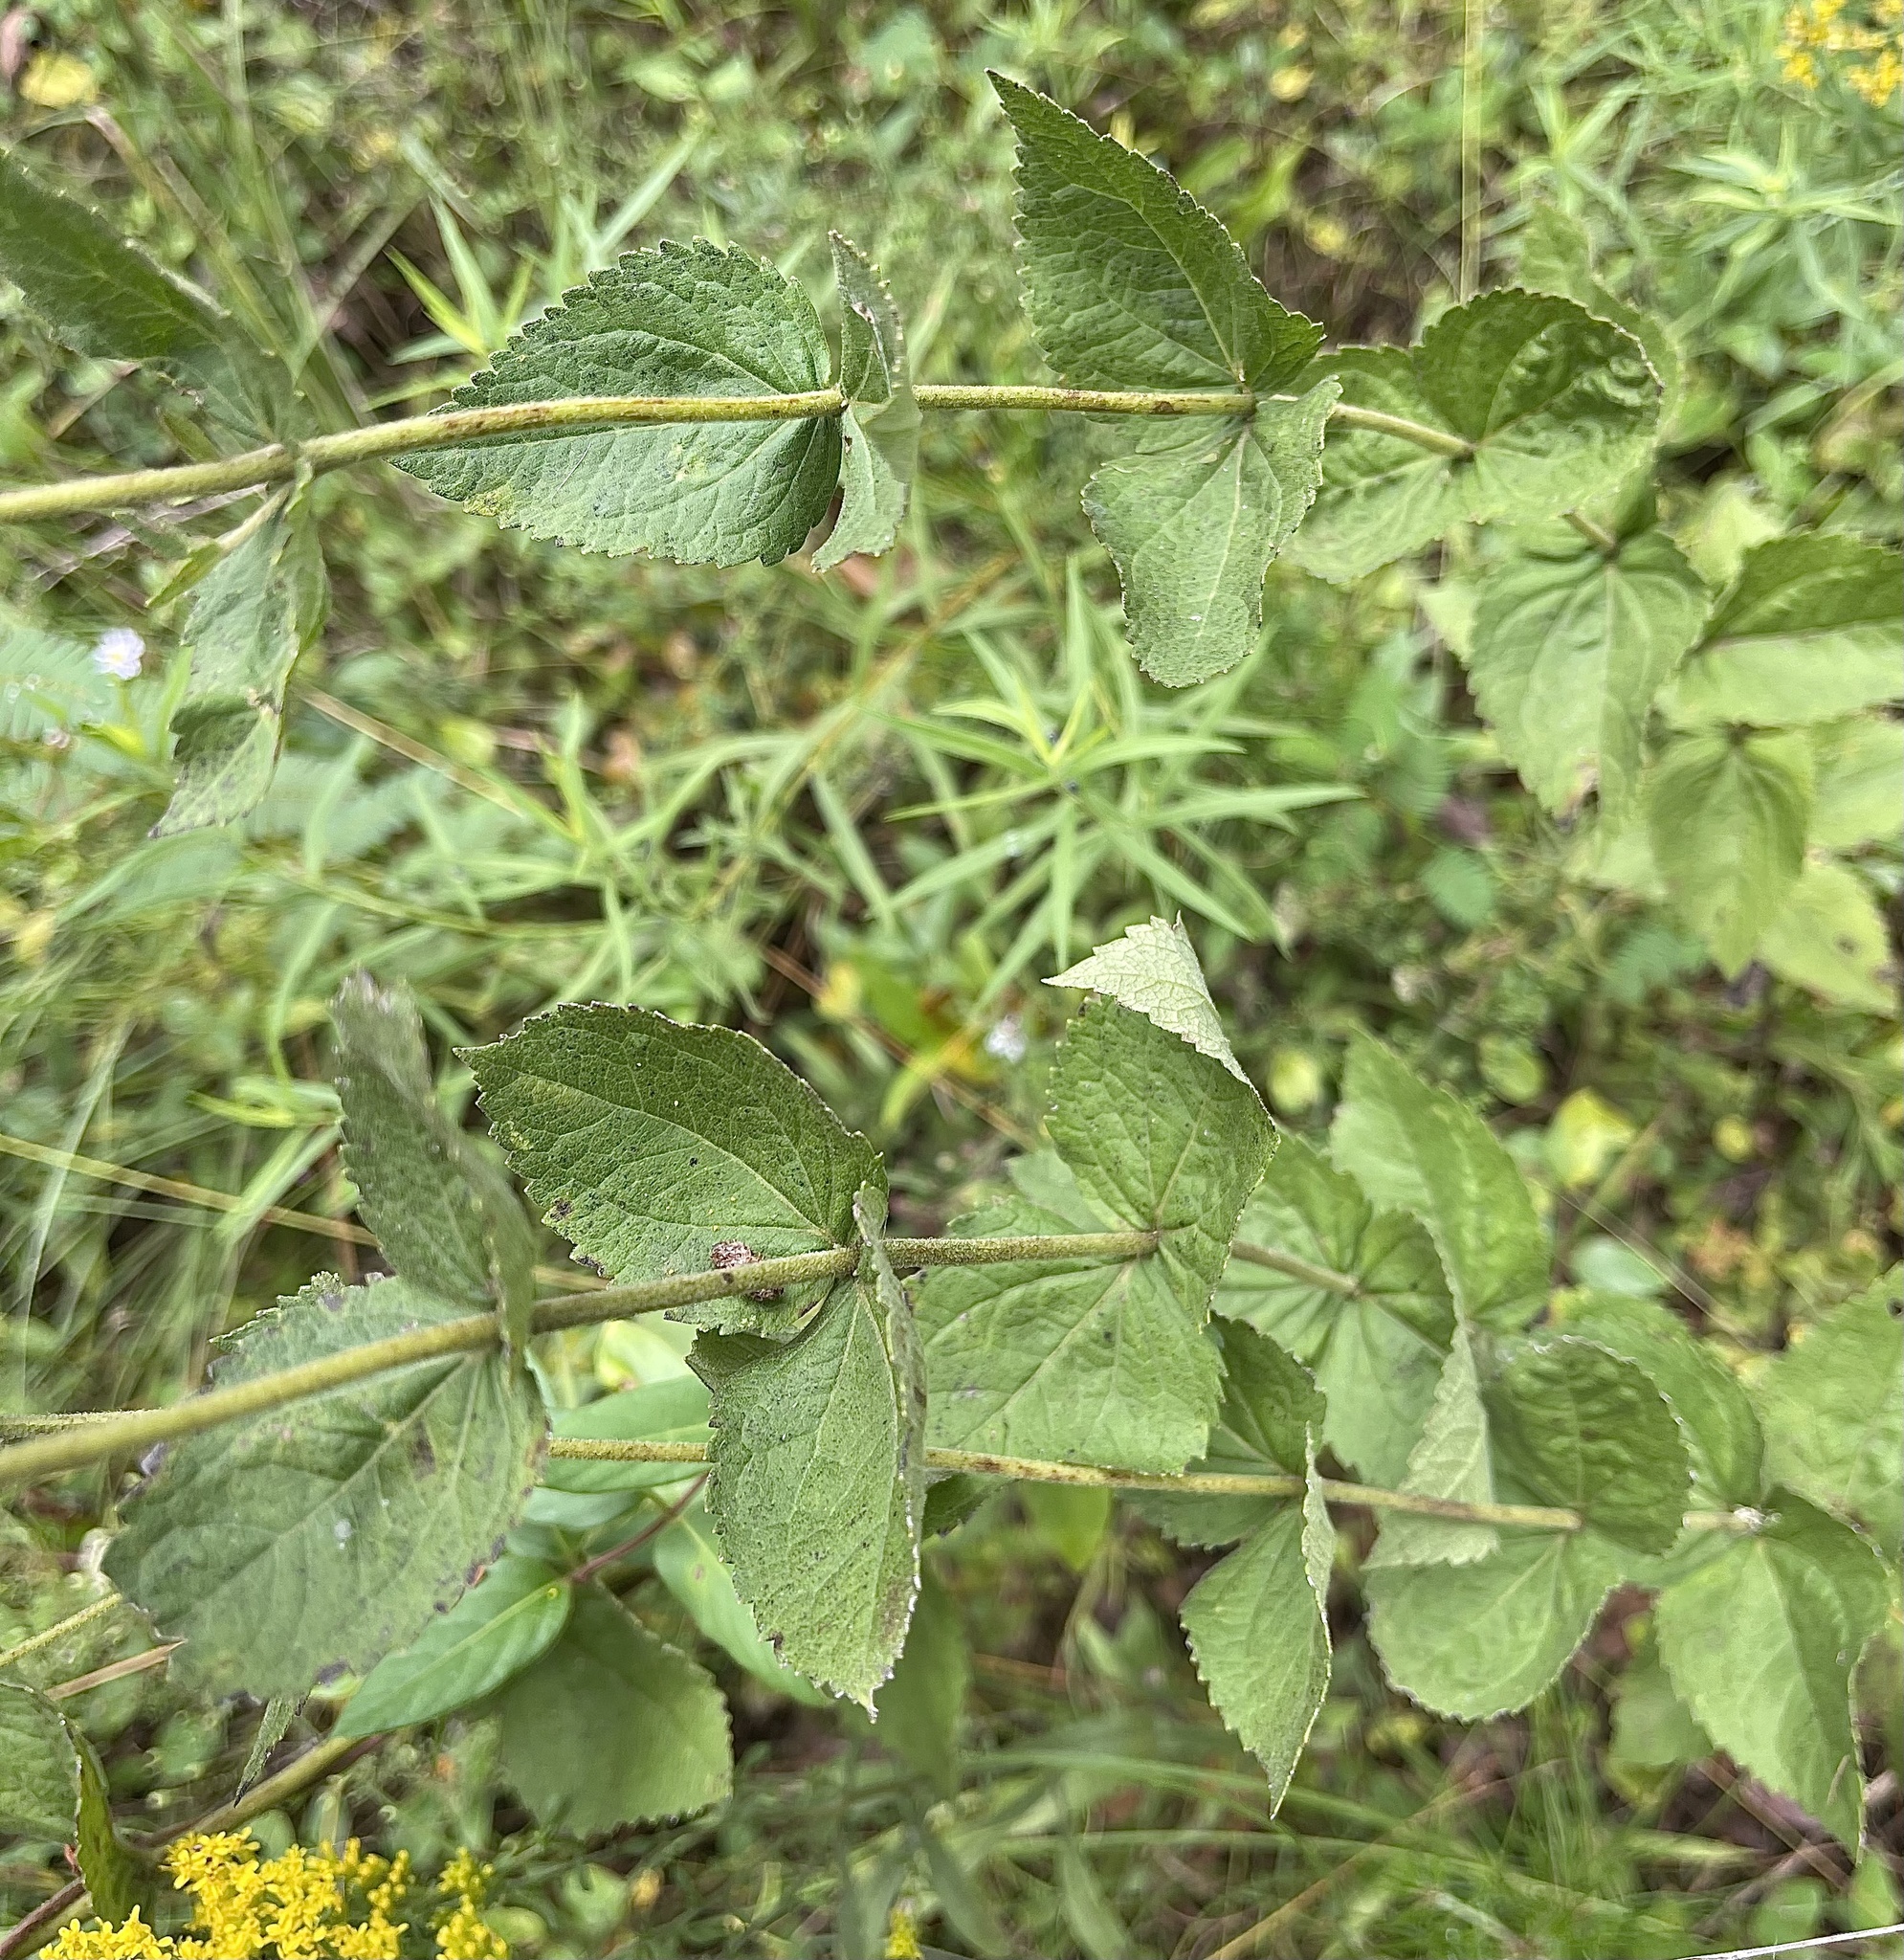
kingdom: Plantae
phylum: Tracheophyta
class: Magnoliopsida
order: Asterales
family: Asteraceae
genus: Eupatorium
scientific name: Eupatorium rotundifolium
